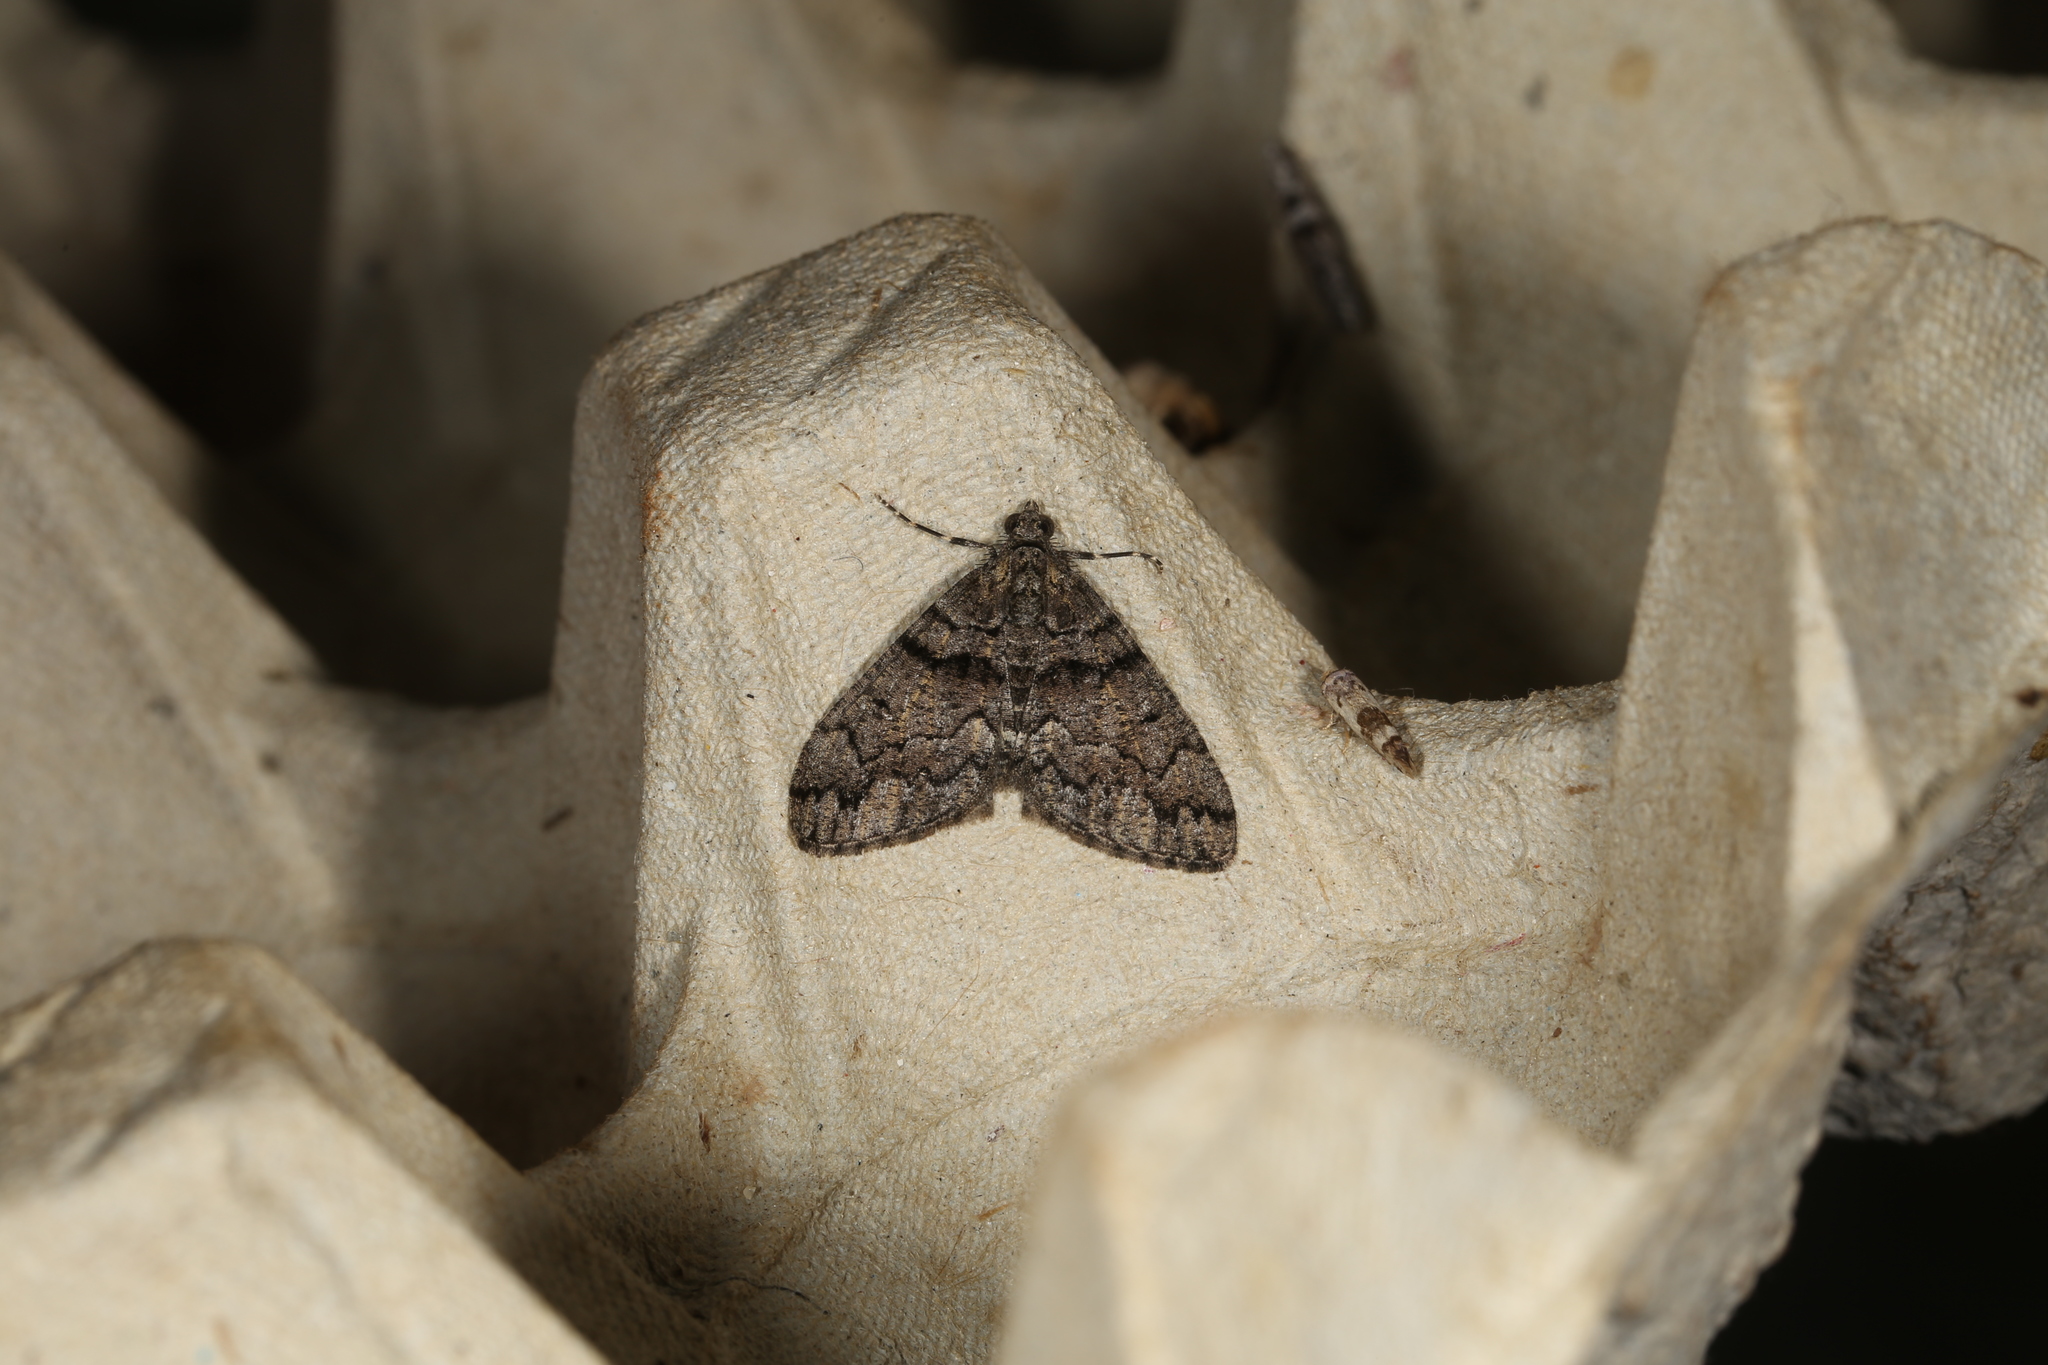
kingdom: Animalia
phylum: Arthropoda
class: Insecta
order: Lepidoptera
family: Geometridae
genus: Lipogya
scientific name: Lipogya exprimataria
